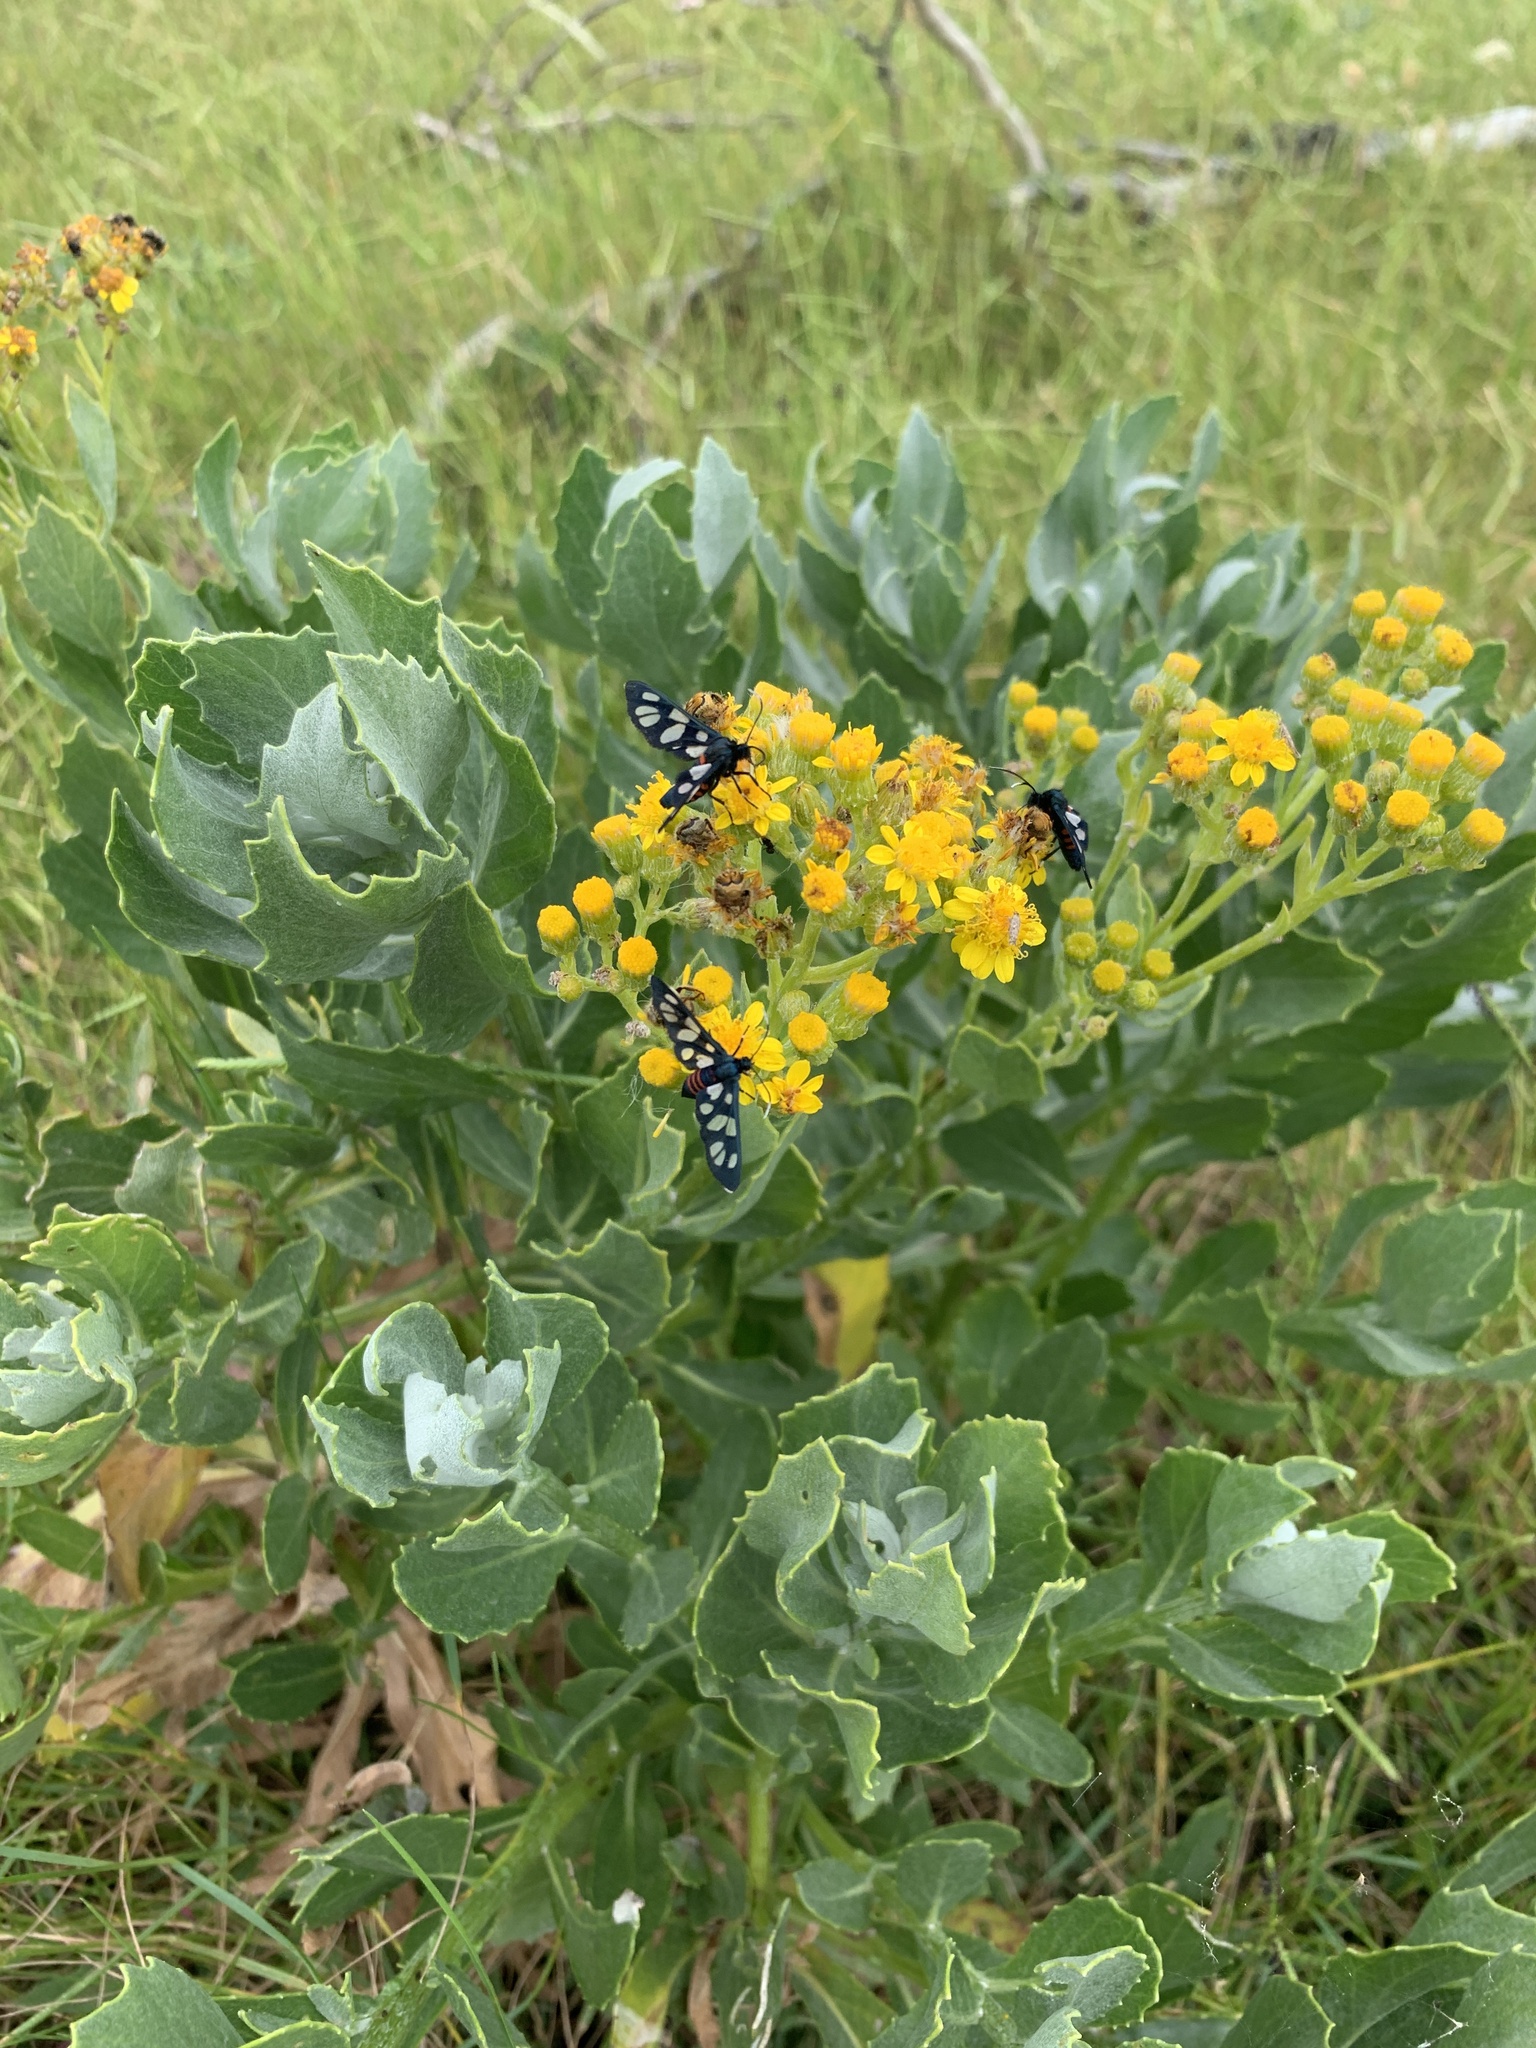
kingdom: Animalia
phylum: Arthropoda
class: Insecta
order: Lepidoptera
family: Erebidae
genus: Amata
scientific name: Amata cerbera
